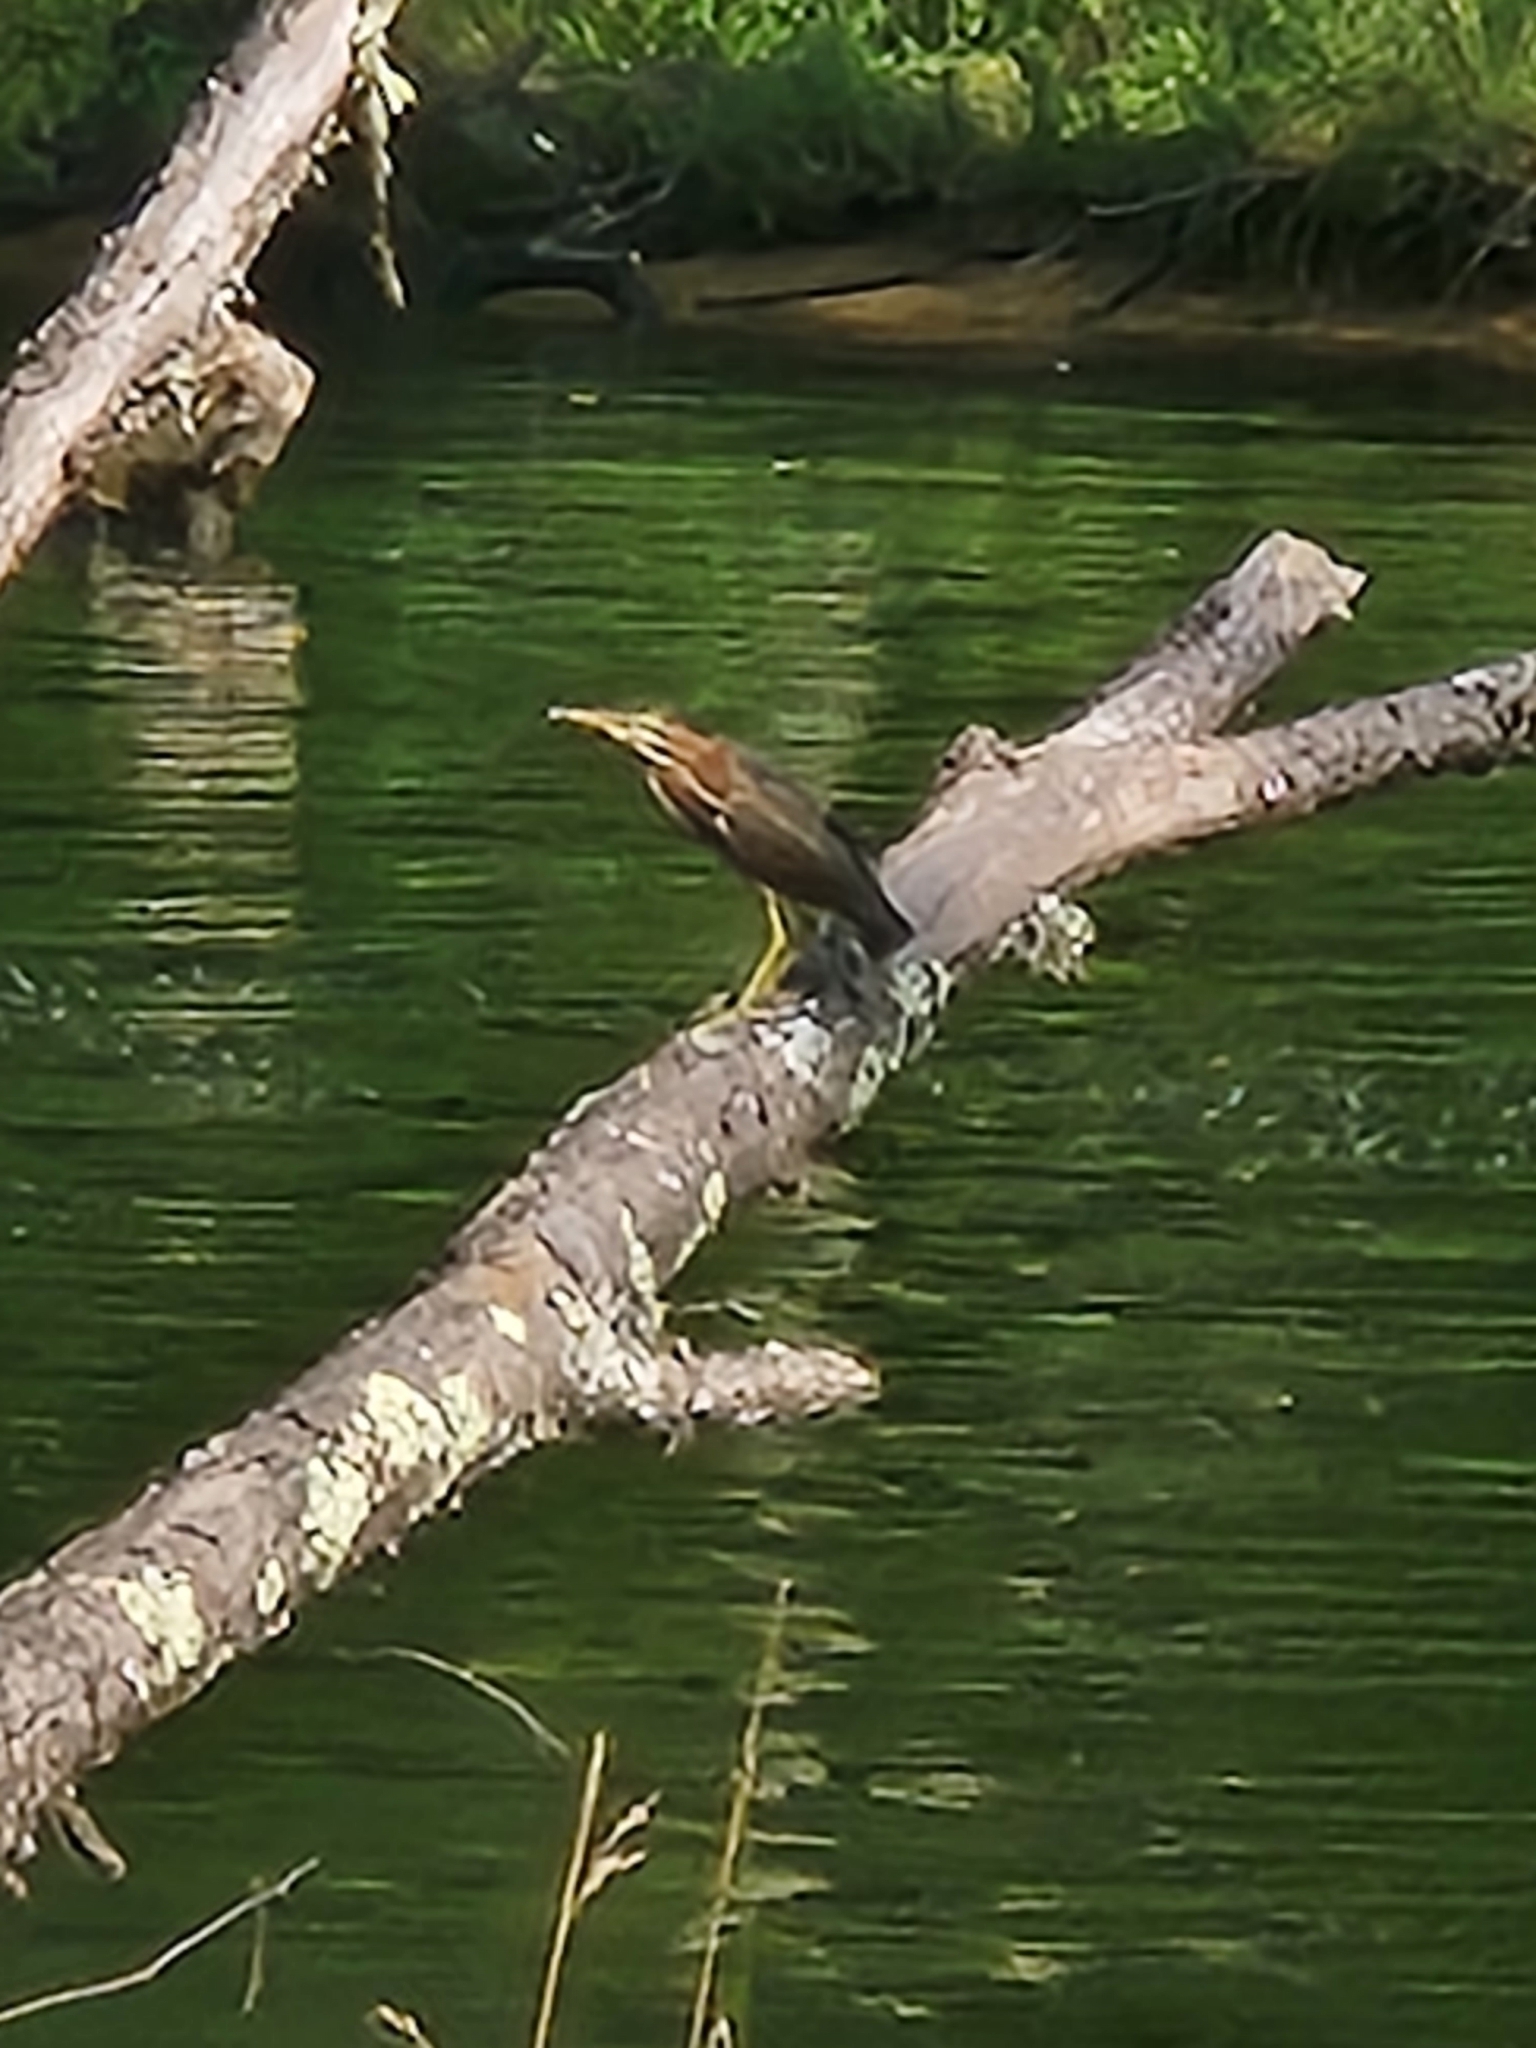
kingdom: Animalia
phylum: Chordata
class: Aves
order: Pelecaniformes
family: Ardeidae
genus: Butorides
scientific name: Butorides virescens
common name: Green heron
